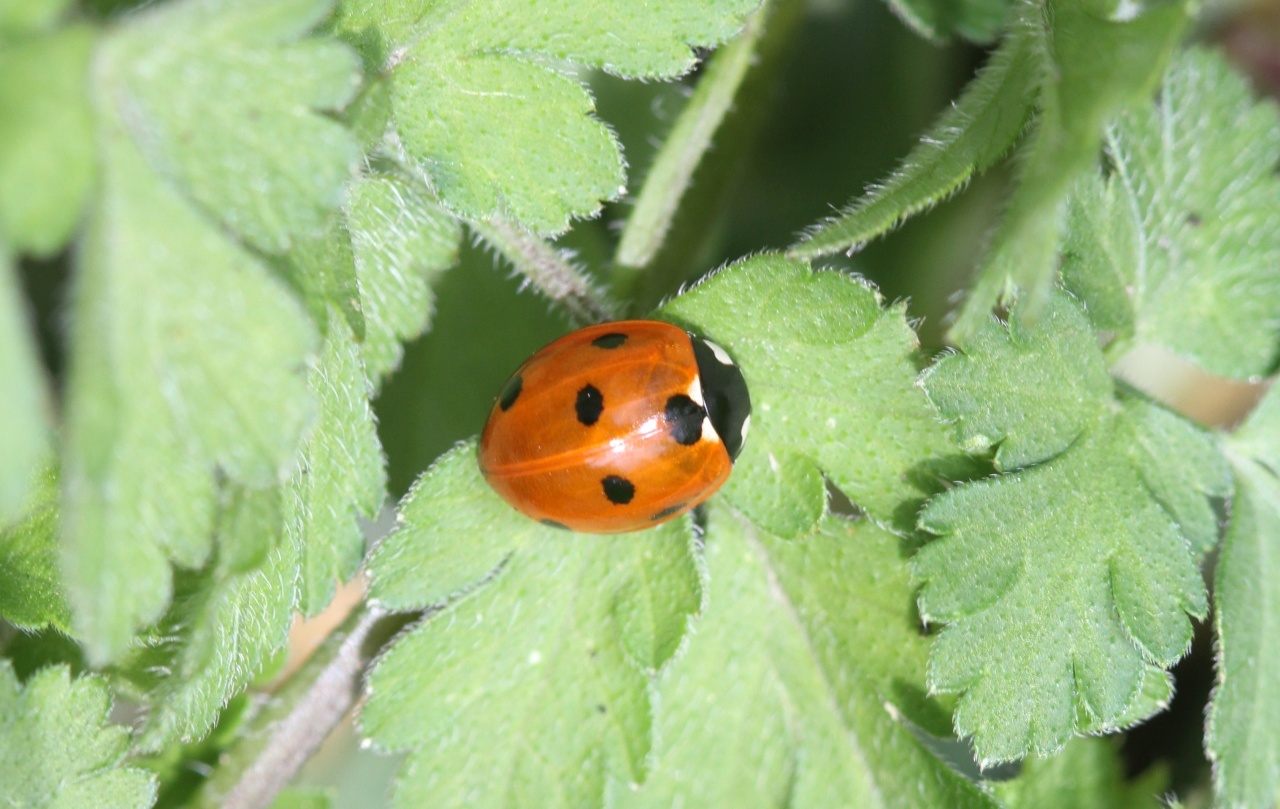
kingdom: Animalia
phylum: Arthropoda
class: Insecta
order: Coleoptera
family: Coccinellidae
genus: Coccinella
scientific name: Coccinella septempunctata
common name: Sevenspotted lady beetle
